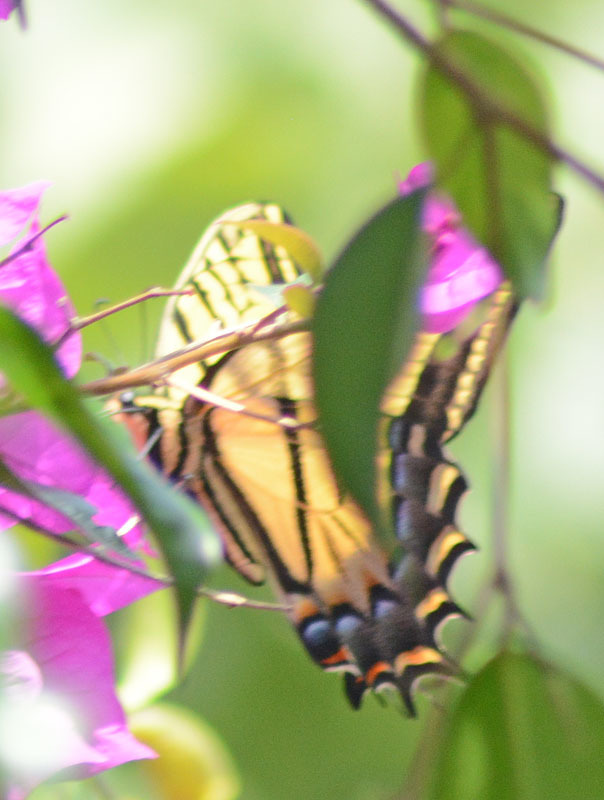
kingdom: Animalia
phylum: Arthropoda
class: Insecta
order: Lepidoptera
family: Papilionidae
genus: Papilio
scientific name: Papilio multicaudata
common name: Two-tailed tiger swallowtail
